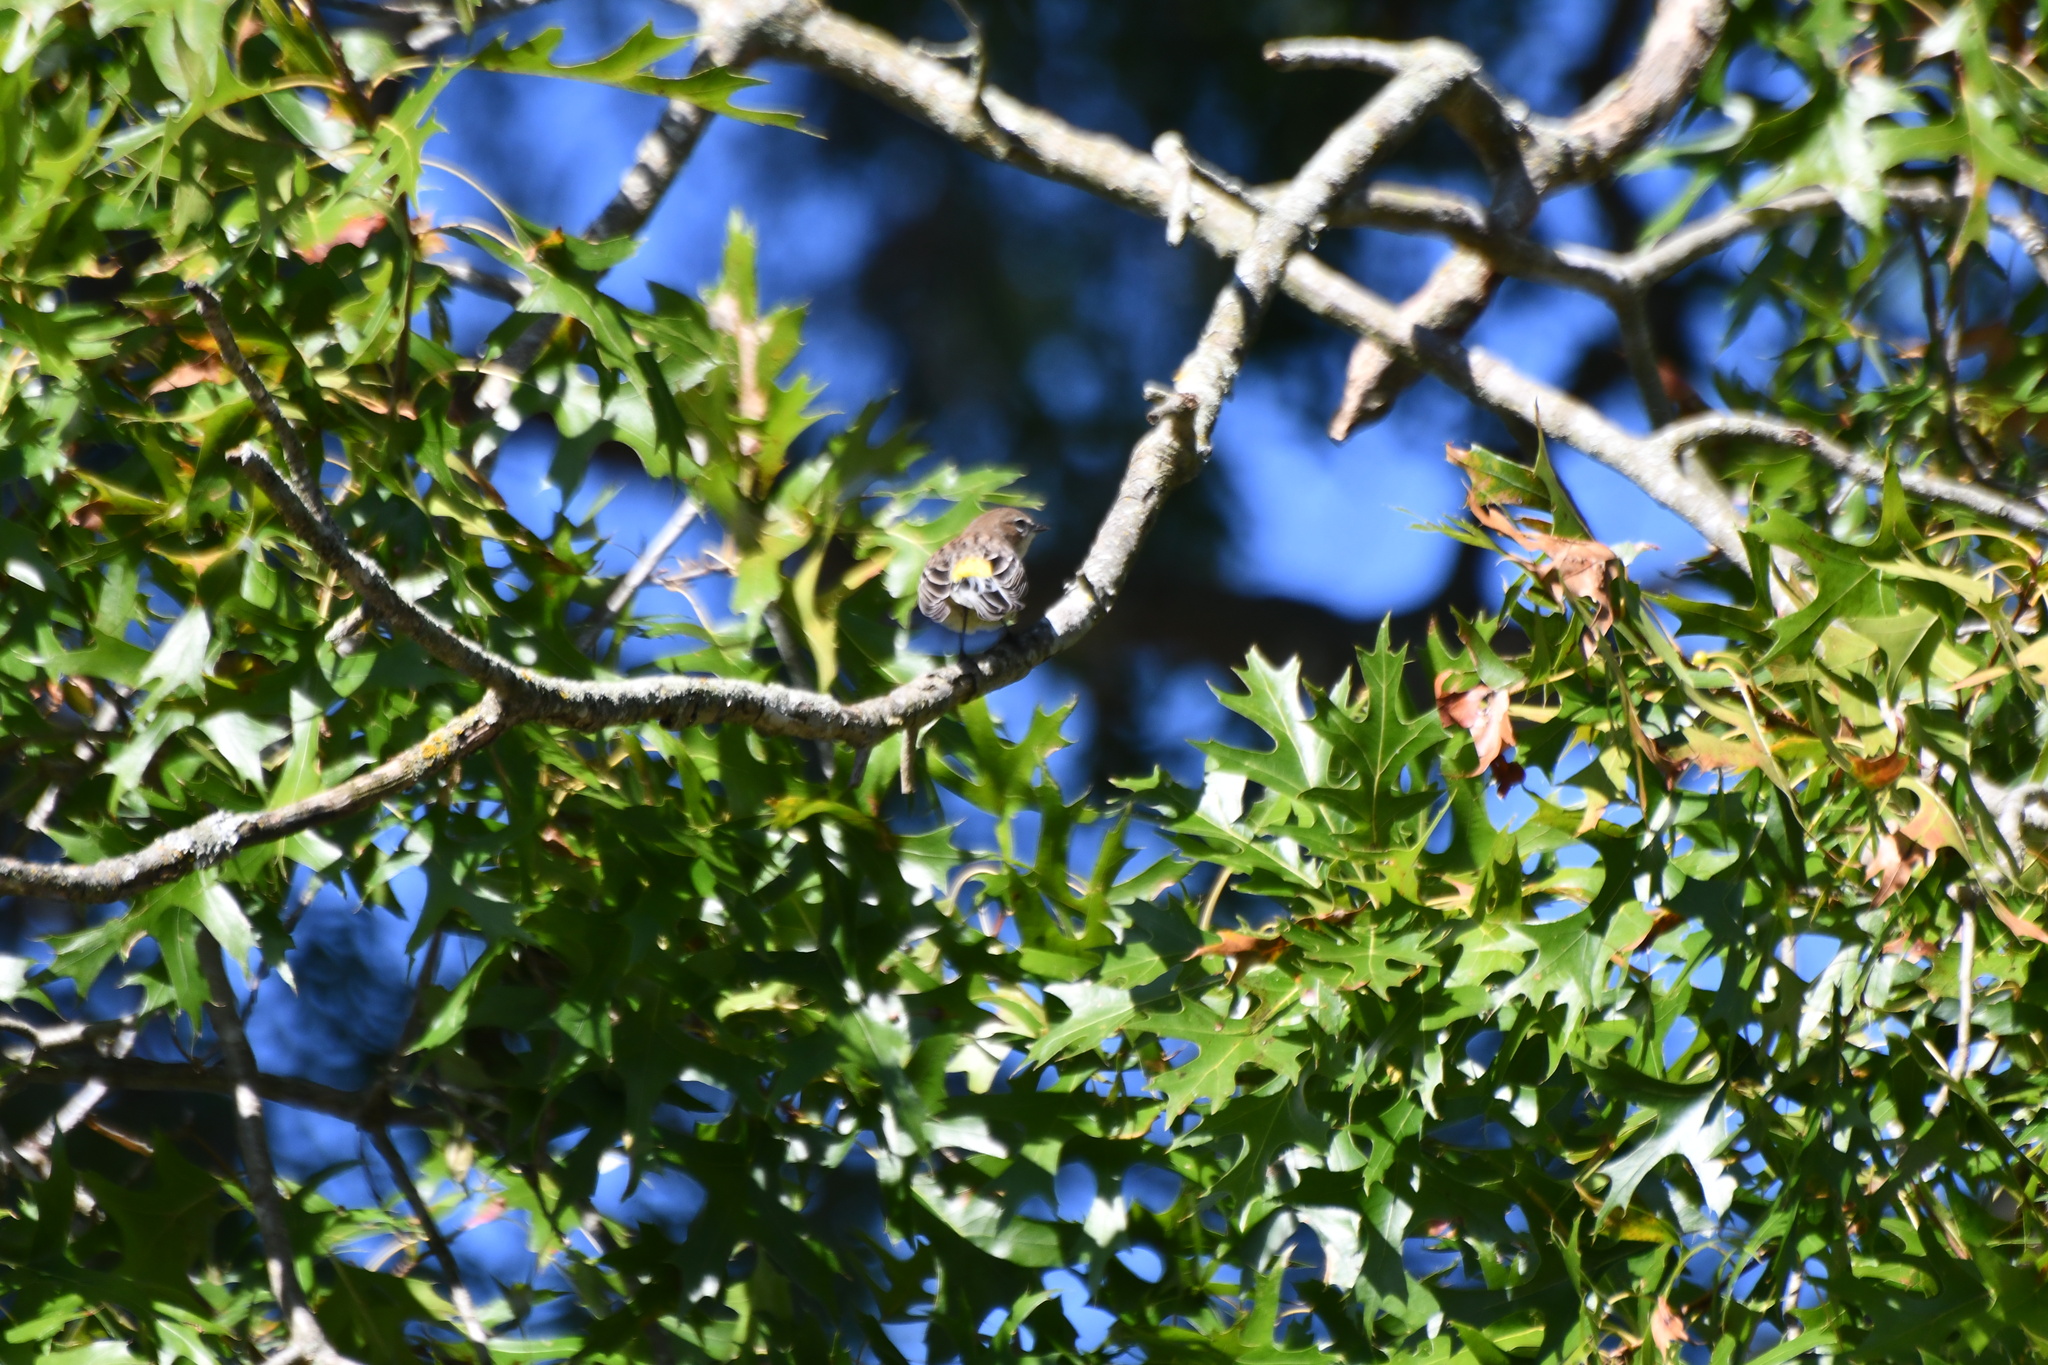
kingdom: Animalia
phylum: Chordata
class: Aves
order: Passeriformes
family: Parulidae
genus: Setophaga
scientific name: Setophaga coronata
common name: Myrtle warbler
